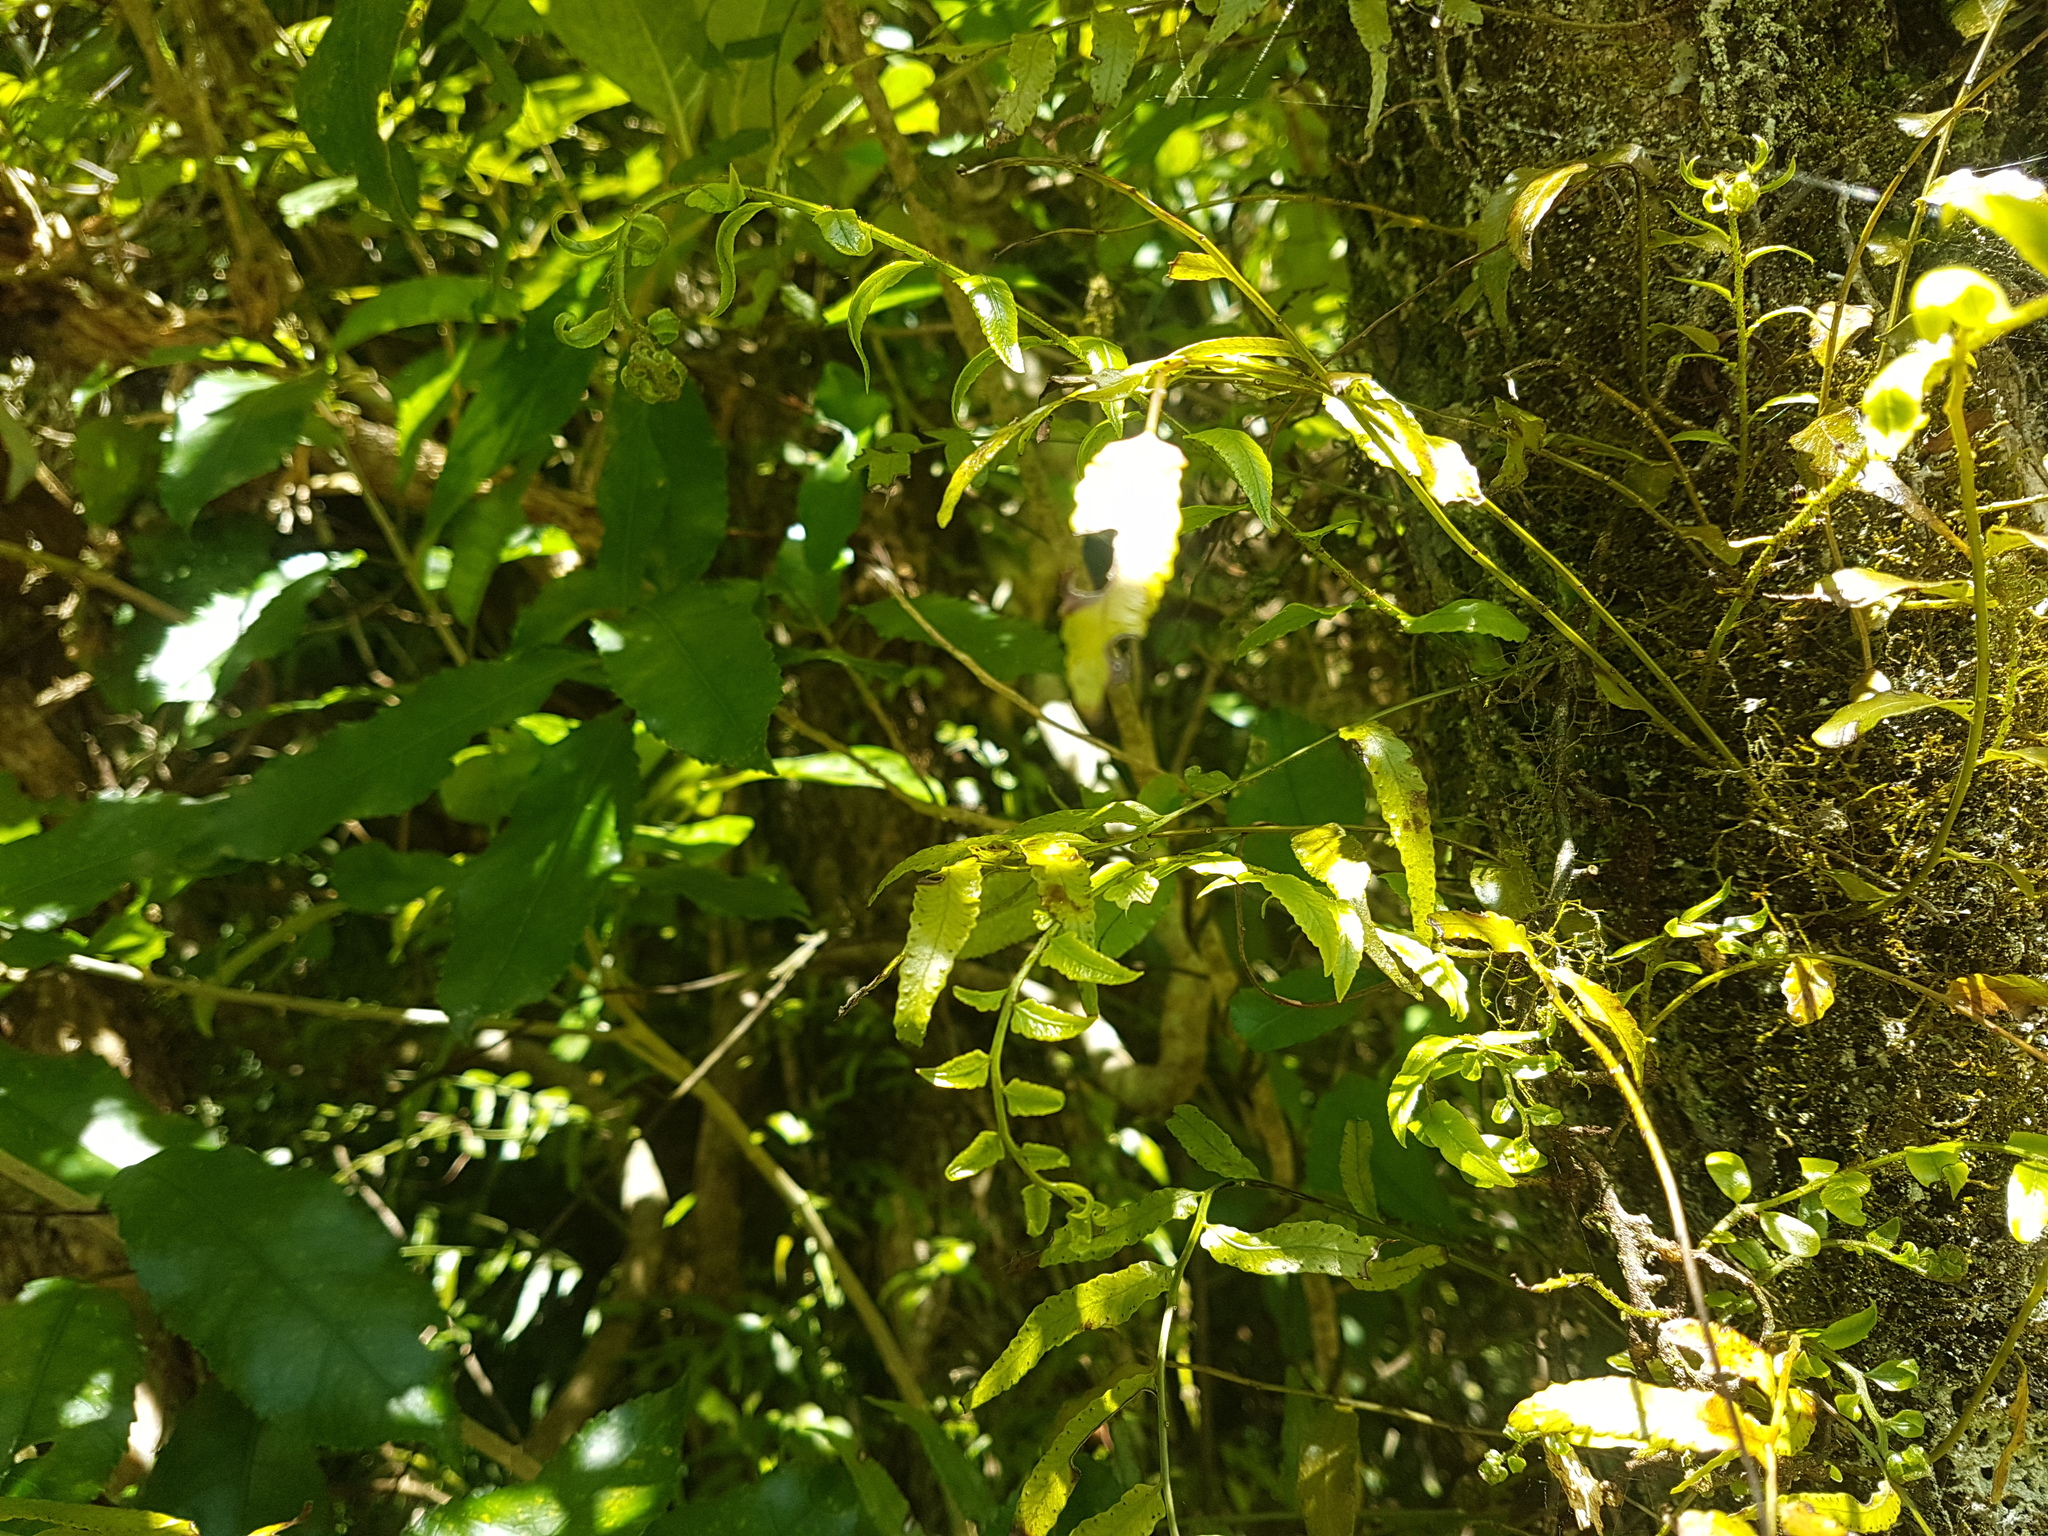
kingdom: Plantae
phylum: Tracheophyta
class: Polypodiopsida
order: Polypodiales
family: Tectariaceae
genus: Arthropteris
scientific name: Arthropteris tenella
